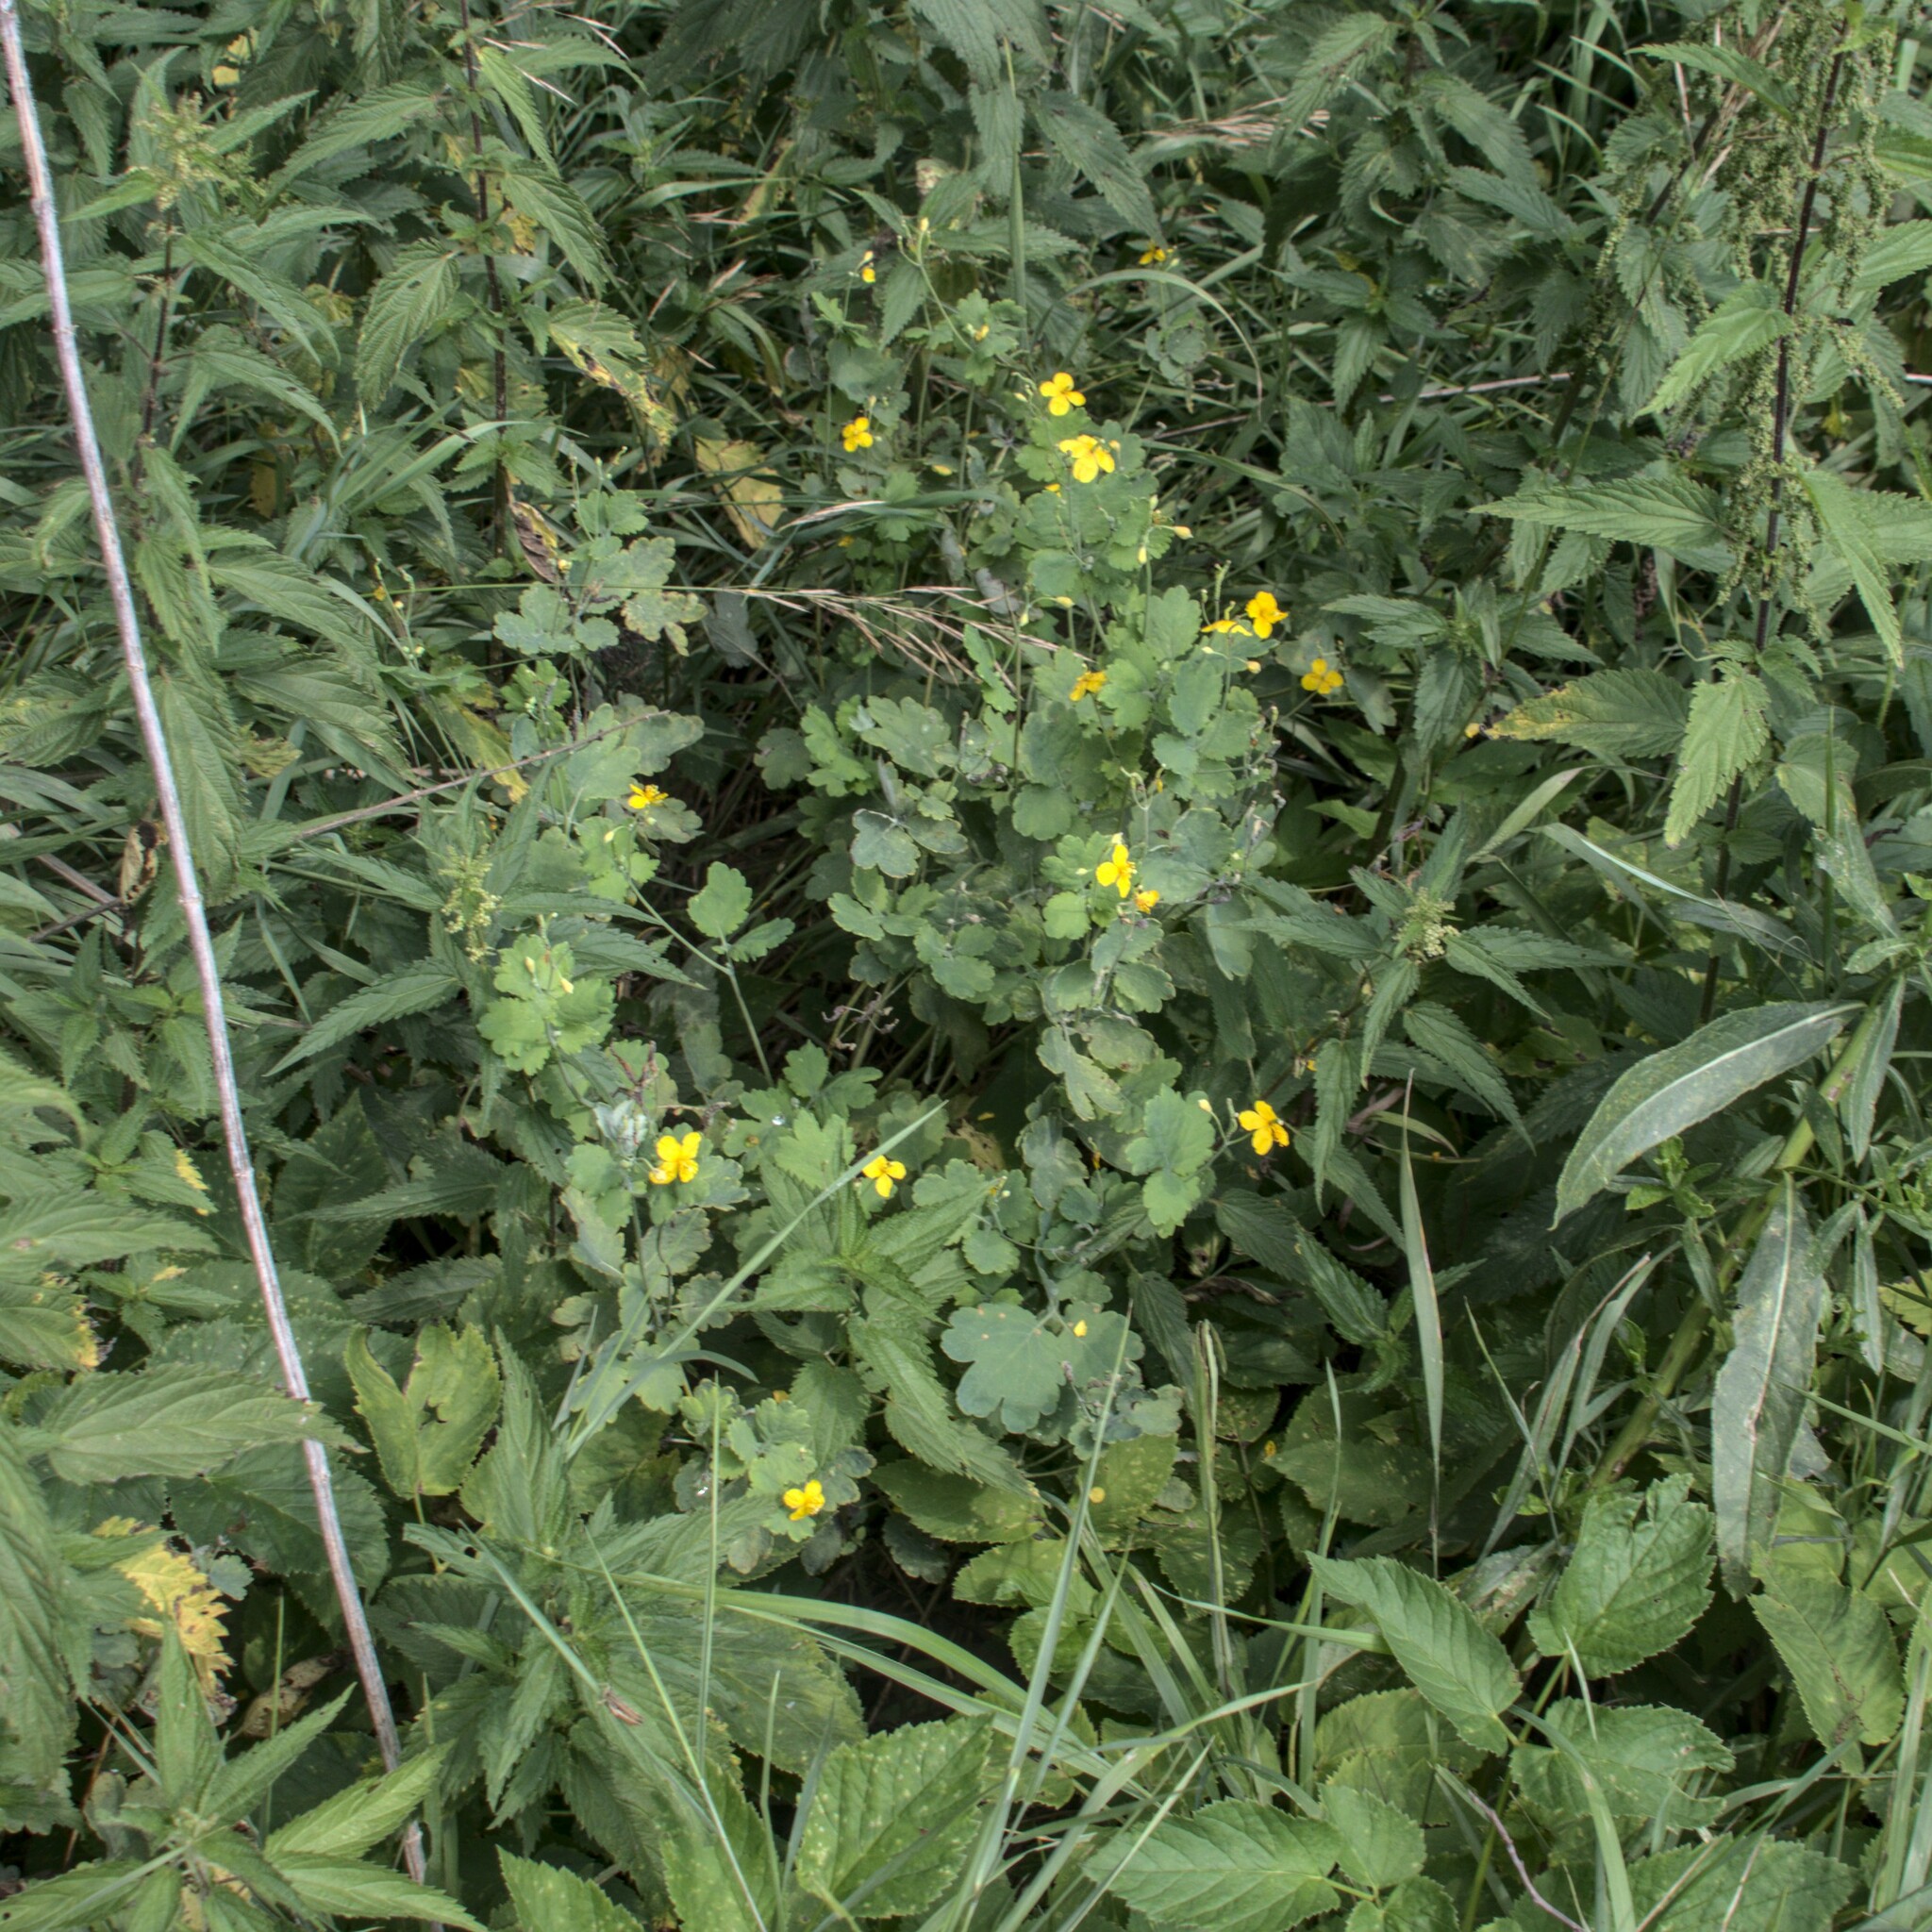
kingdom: Plantae
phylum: Tracheophyta
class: Magnoliopsida
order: Ranunculales
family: Papaveraceae
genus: Chelidonium
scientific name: Chelidonium majus
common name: Greater celandine
